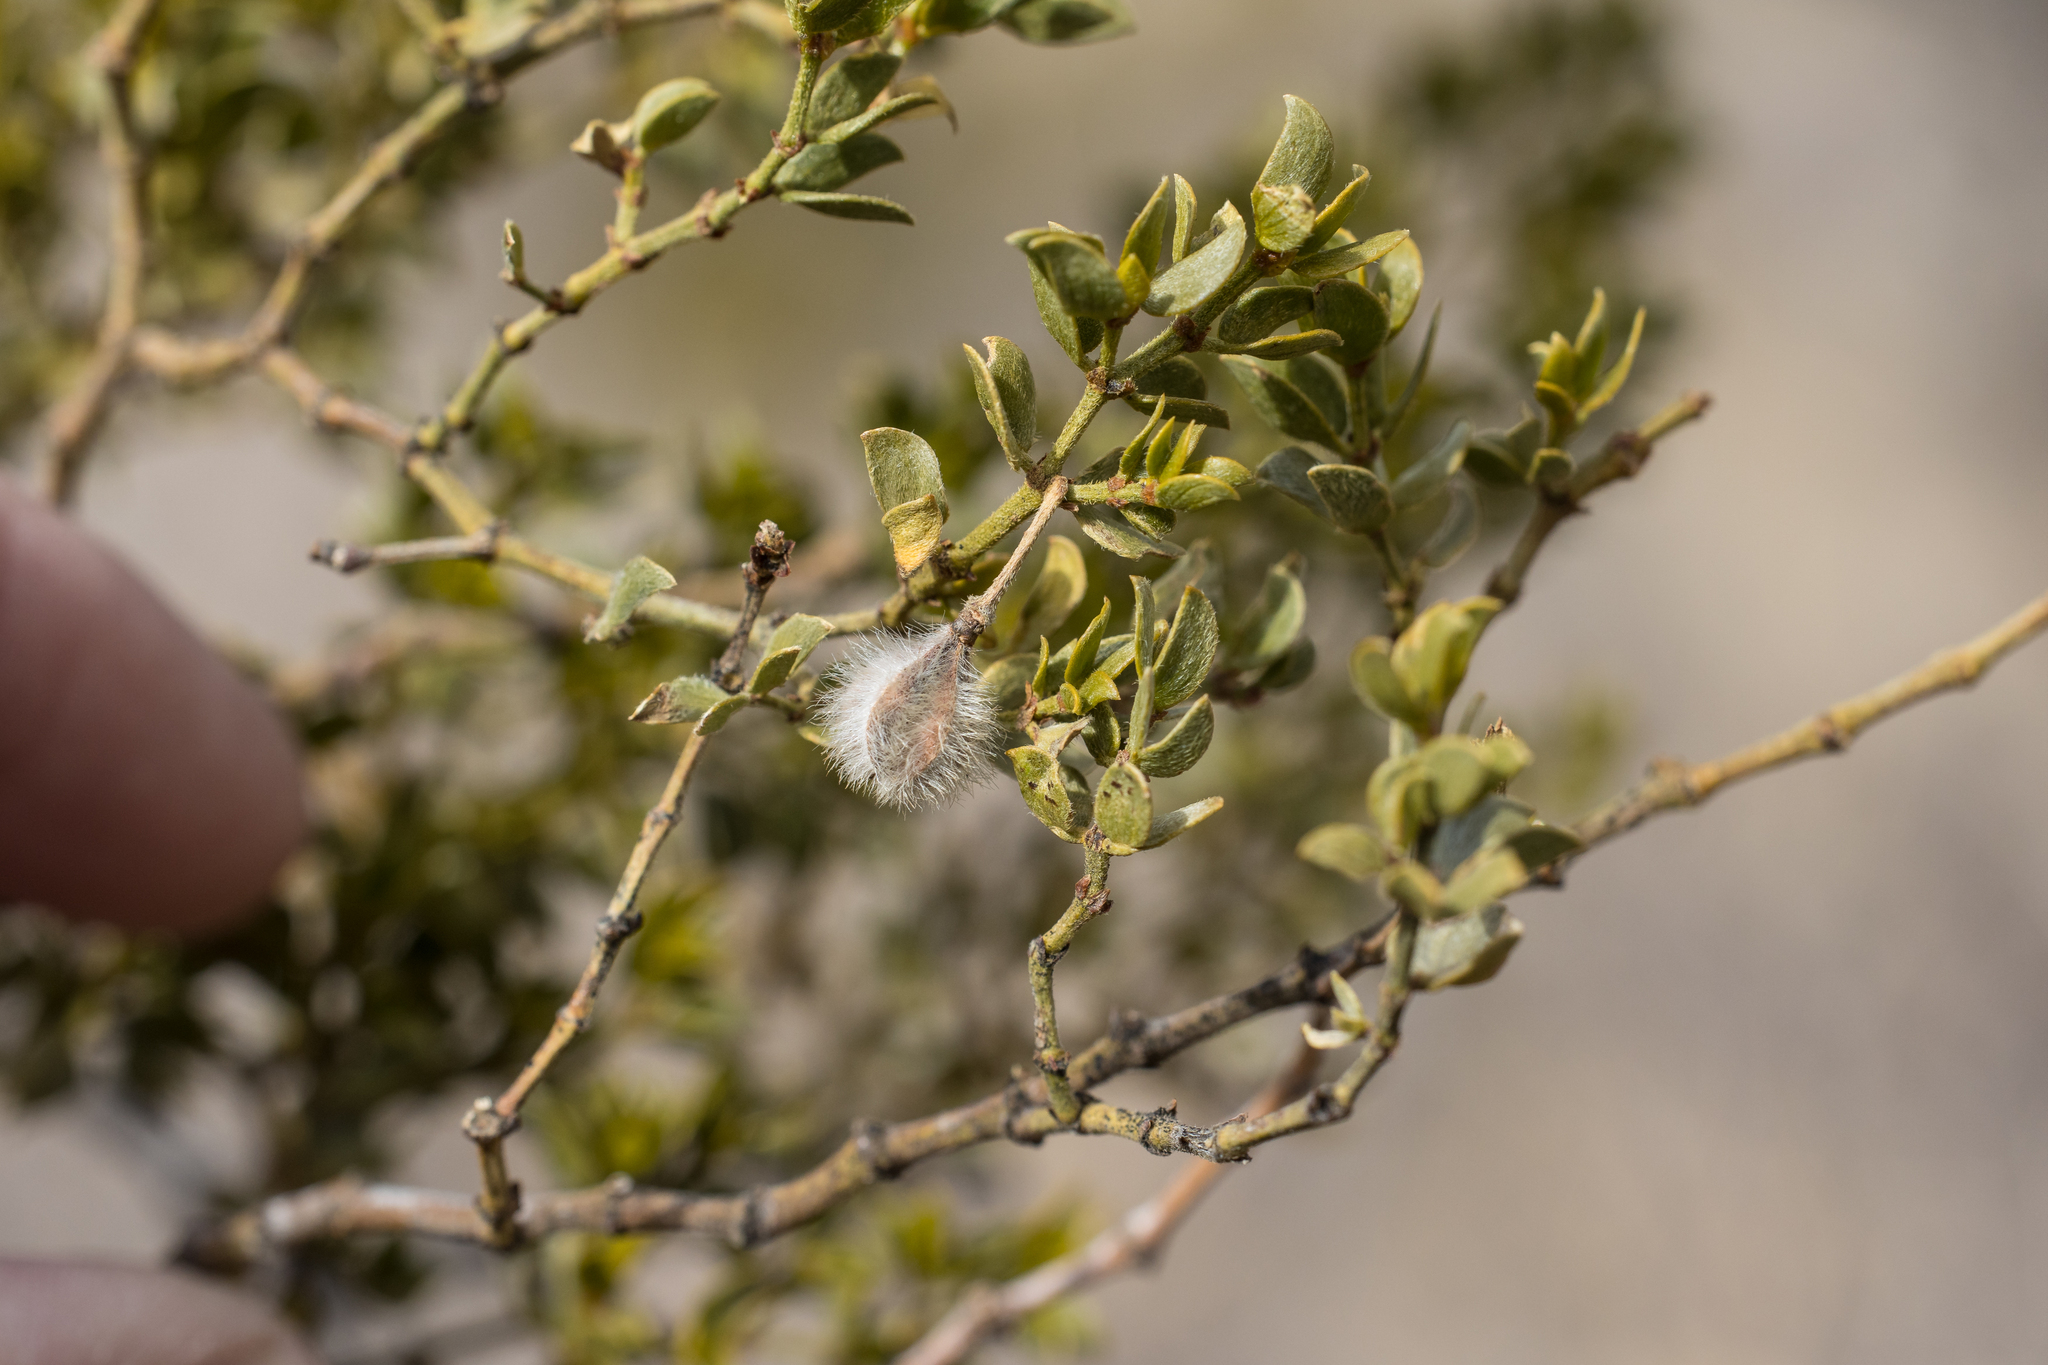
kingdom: Plantae
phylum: Tracheophyta
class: Magnoliopsida
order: Zygophyllales
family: Zygophyllaceae
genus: Larrea
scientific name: Larrea tridentata
